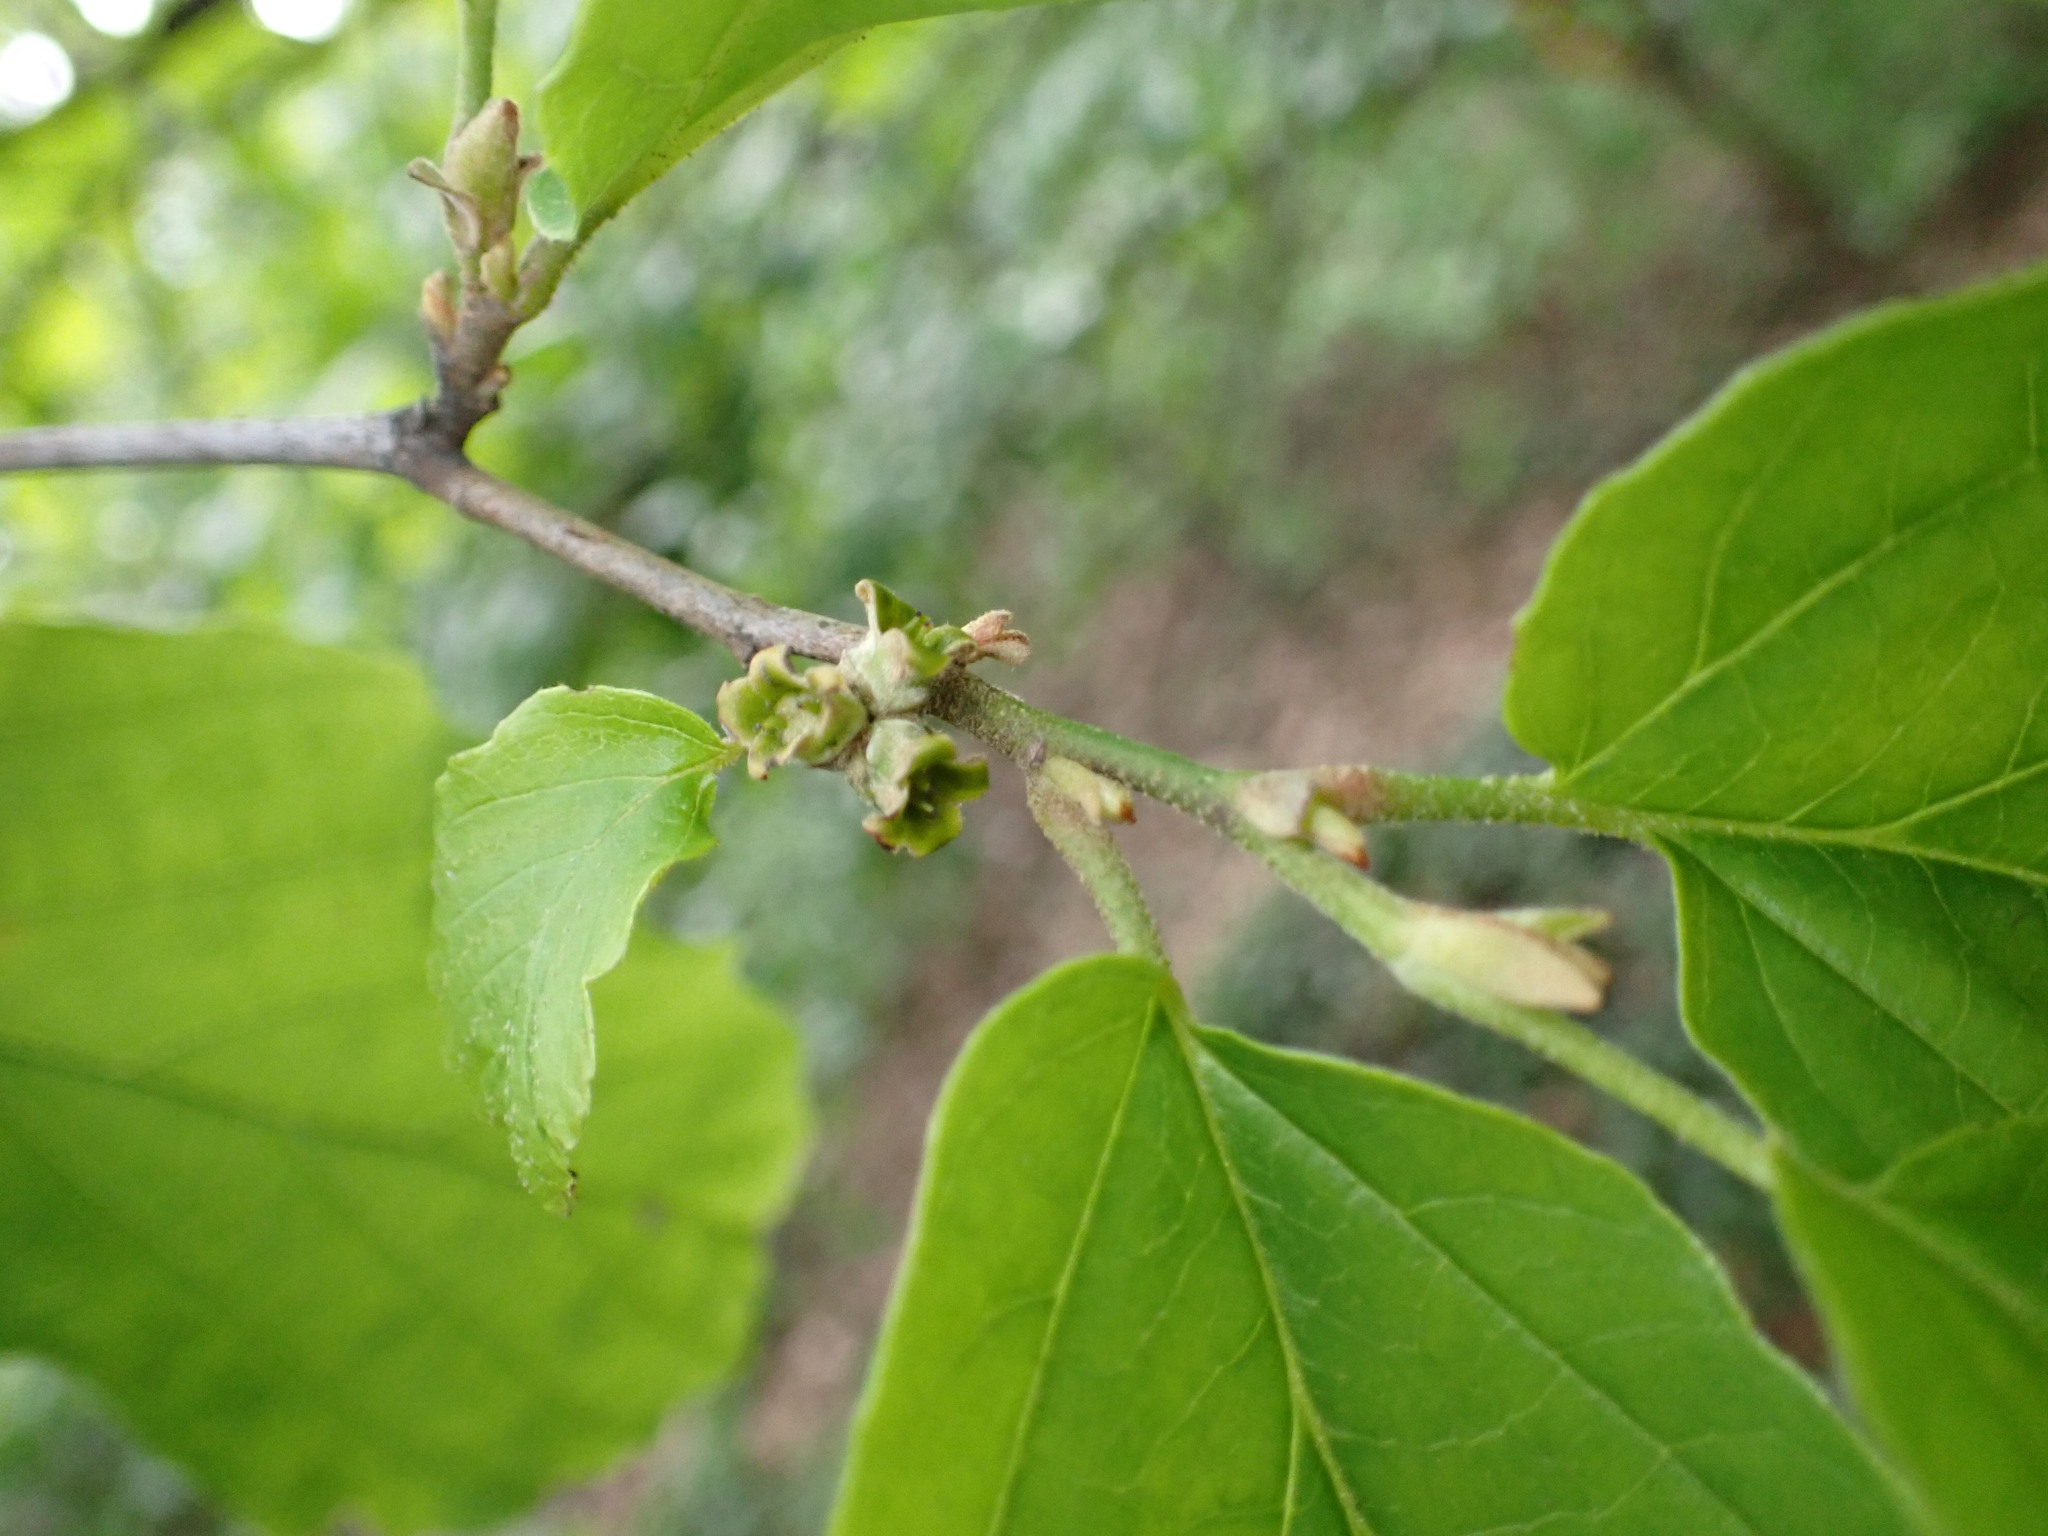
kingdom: Plantae
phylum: Tracheophyta
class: Magnoliopsida
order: Saxifragales
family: Hamamelidaceae
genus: Hamamelis
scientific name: Hamamelis virginiana
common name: Witch-hazel
